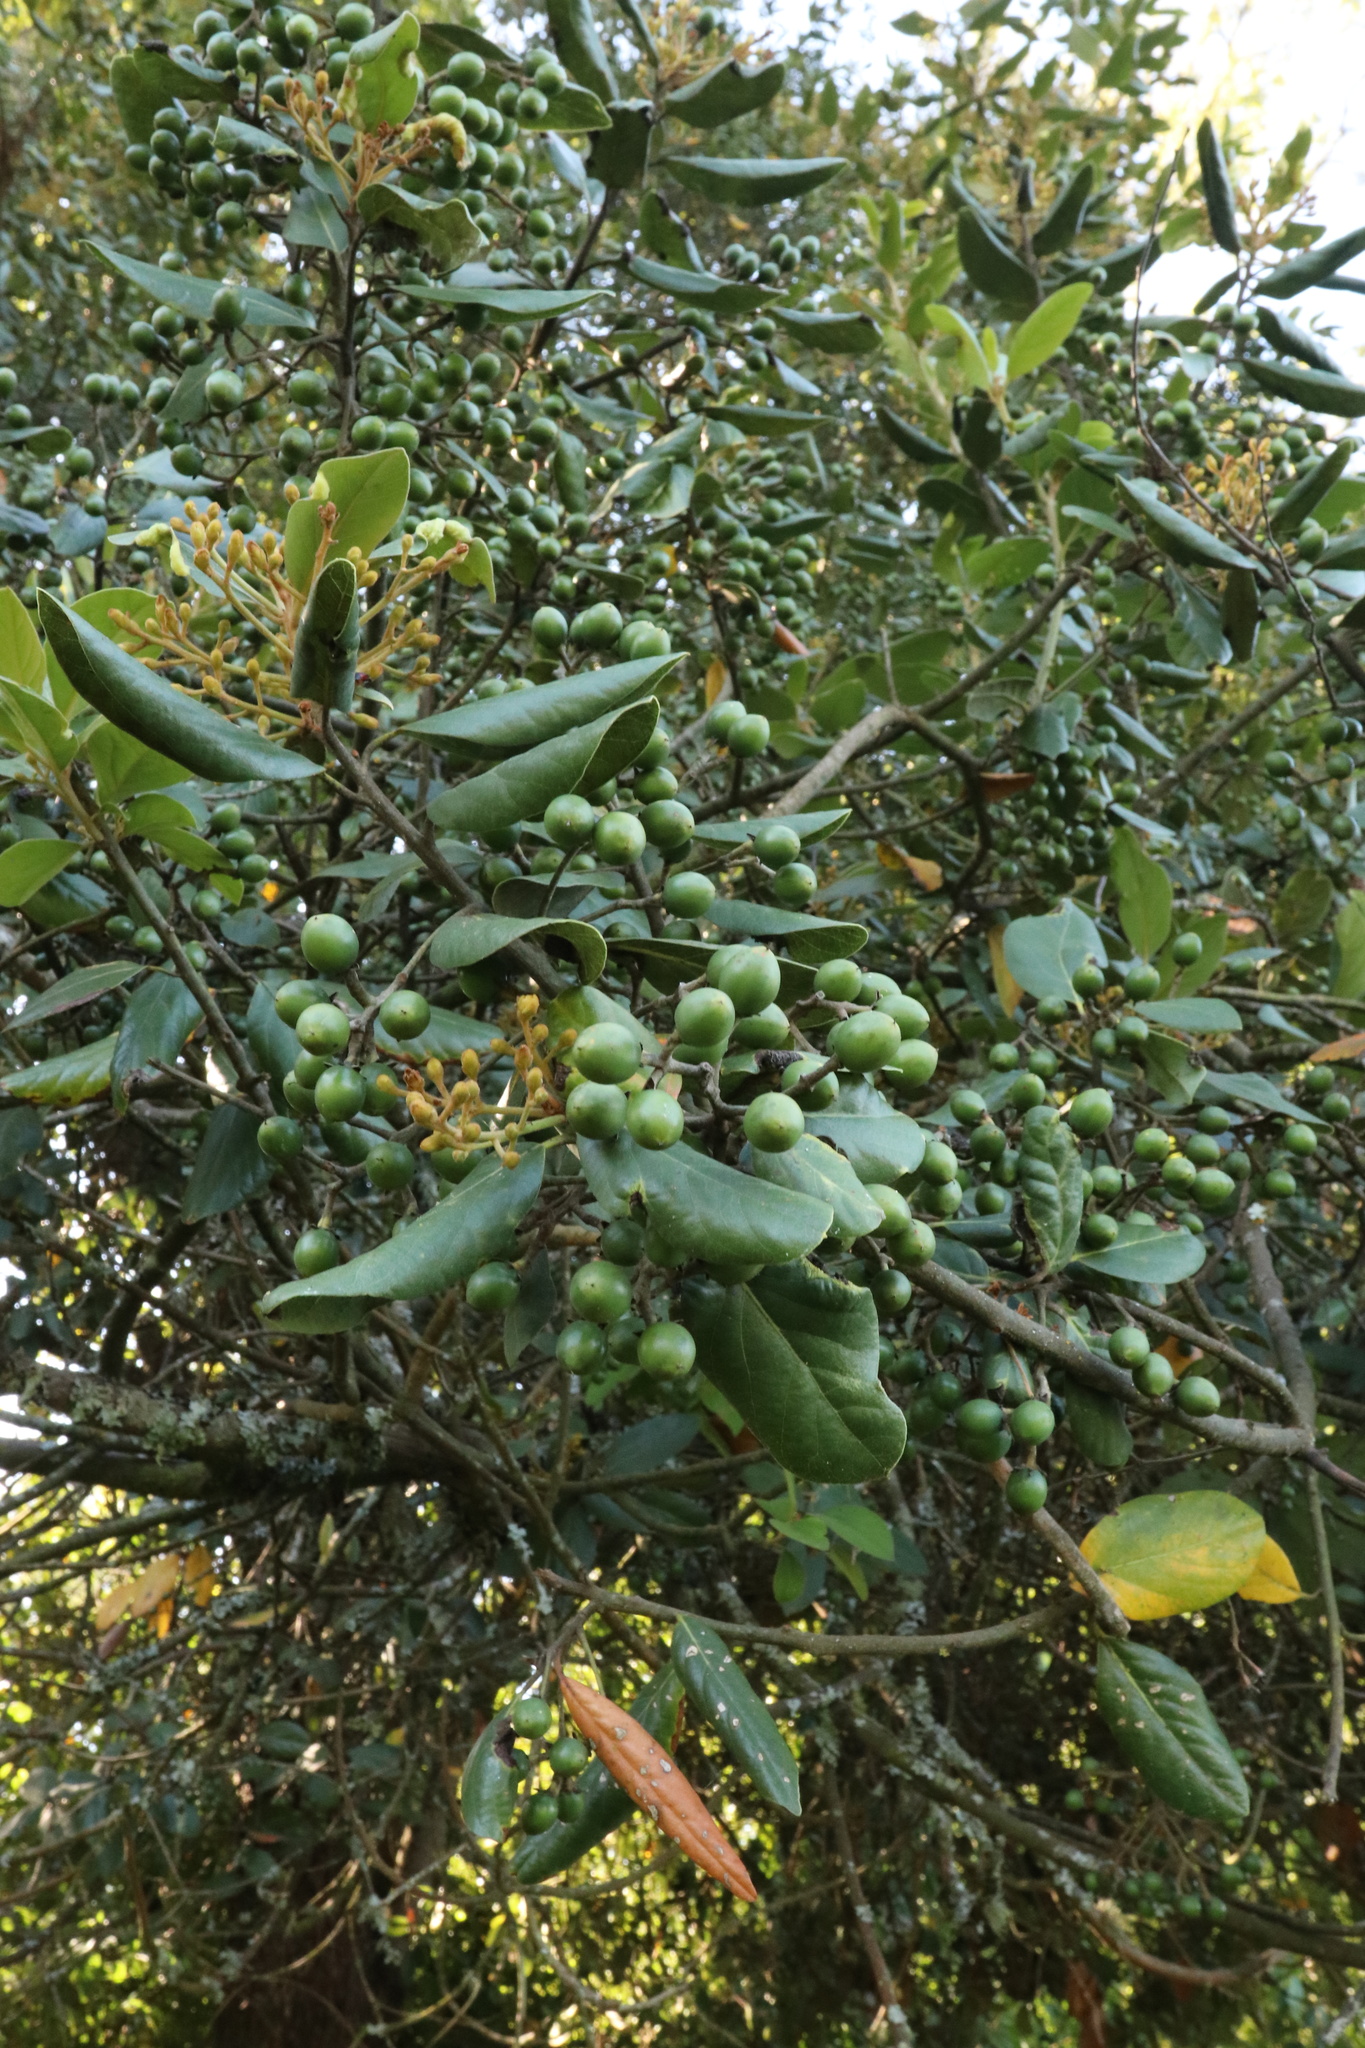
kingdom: Plantae
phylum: Tracheophyta
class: Magnoliopsida
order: Laurales
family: Lauraceae
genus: Persea
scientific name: Persea lingue
